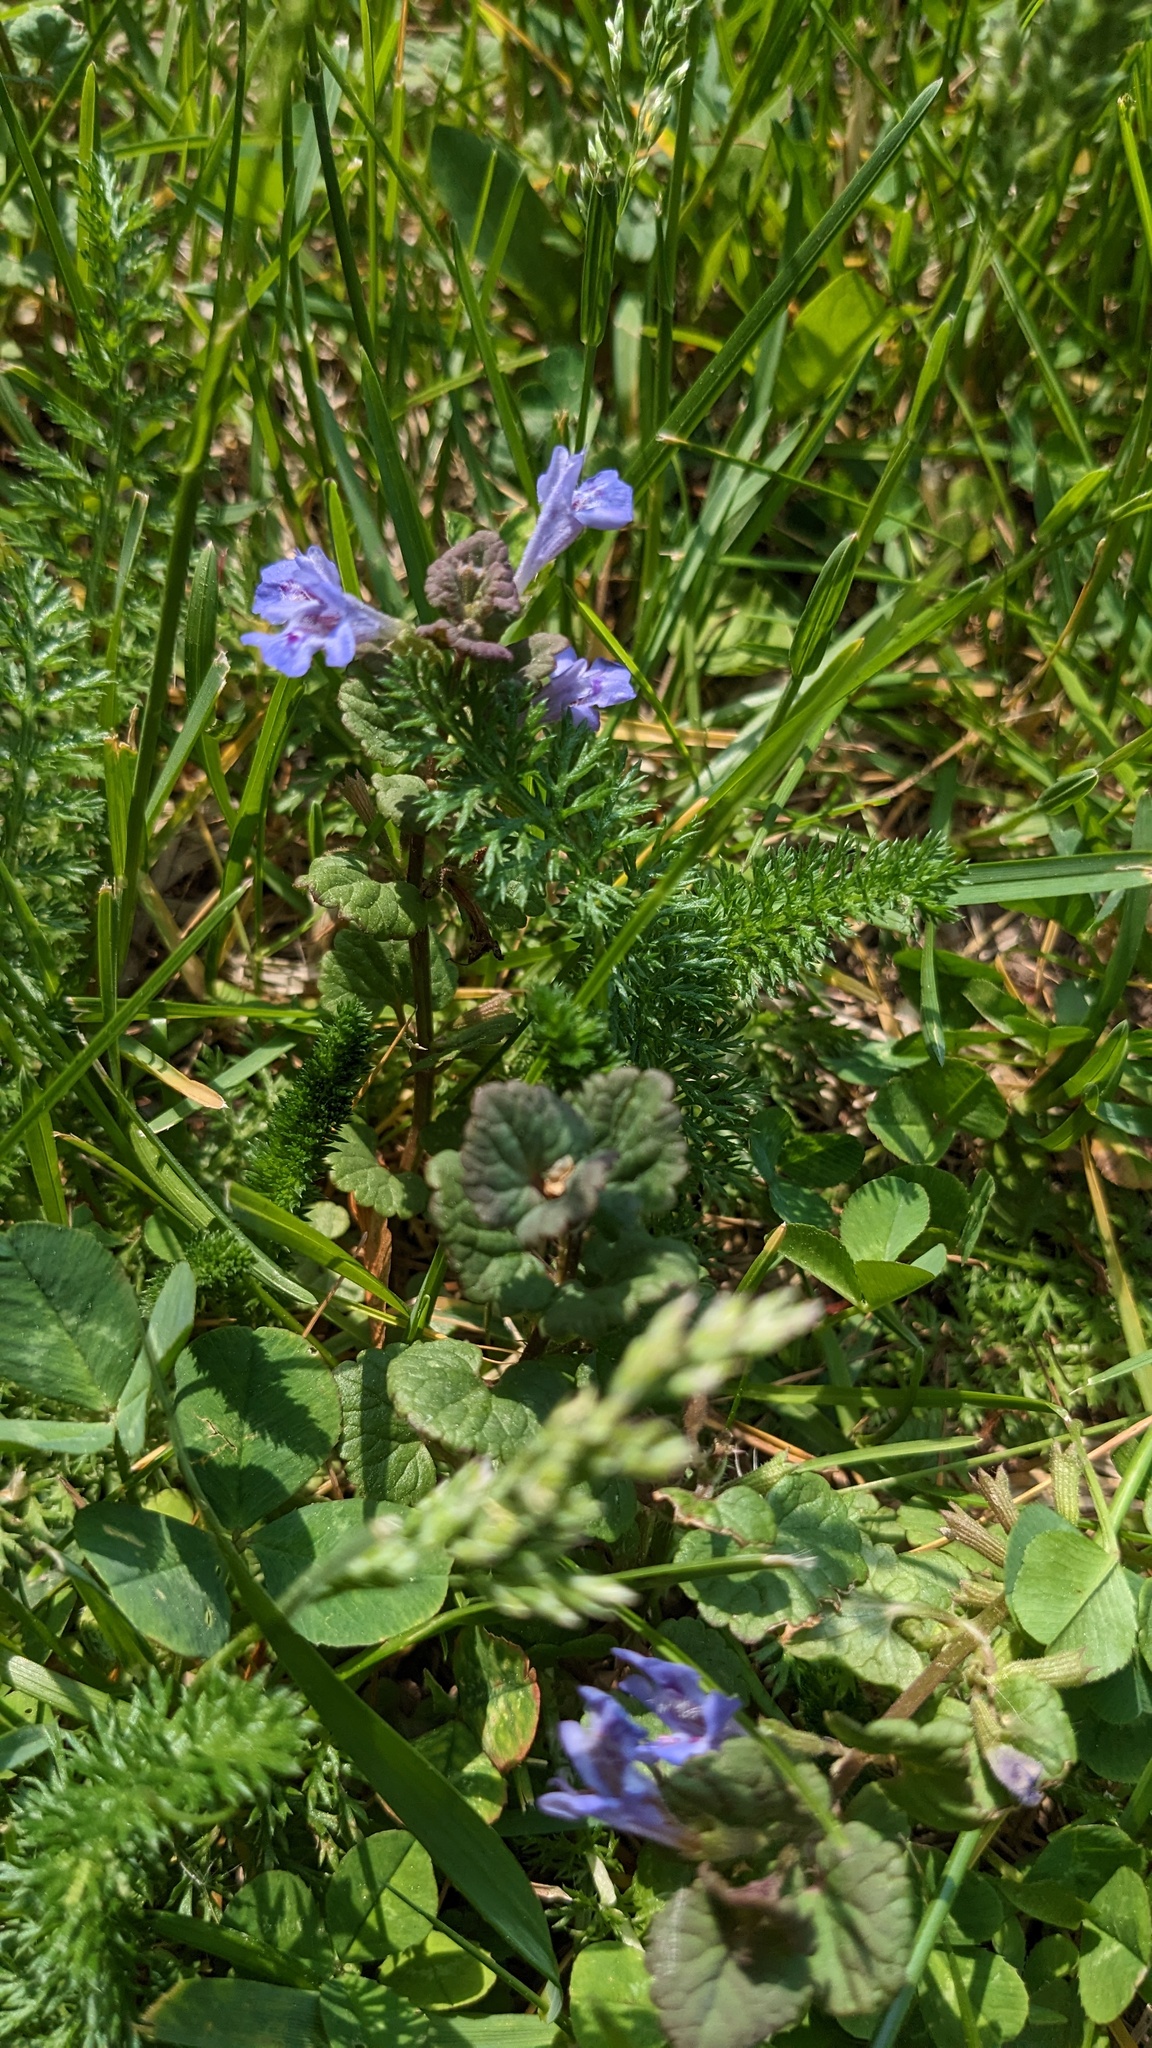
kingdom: Plantae
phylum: Tracheophyta
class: Magnoliopsida
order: Lamiales
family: Lamiaceae
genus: Glechoma
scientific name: Glechoma hederacea
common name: Ground ivy
